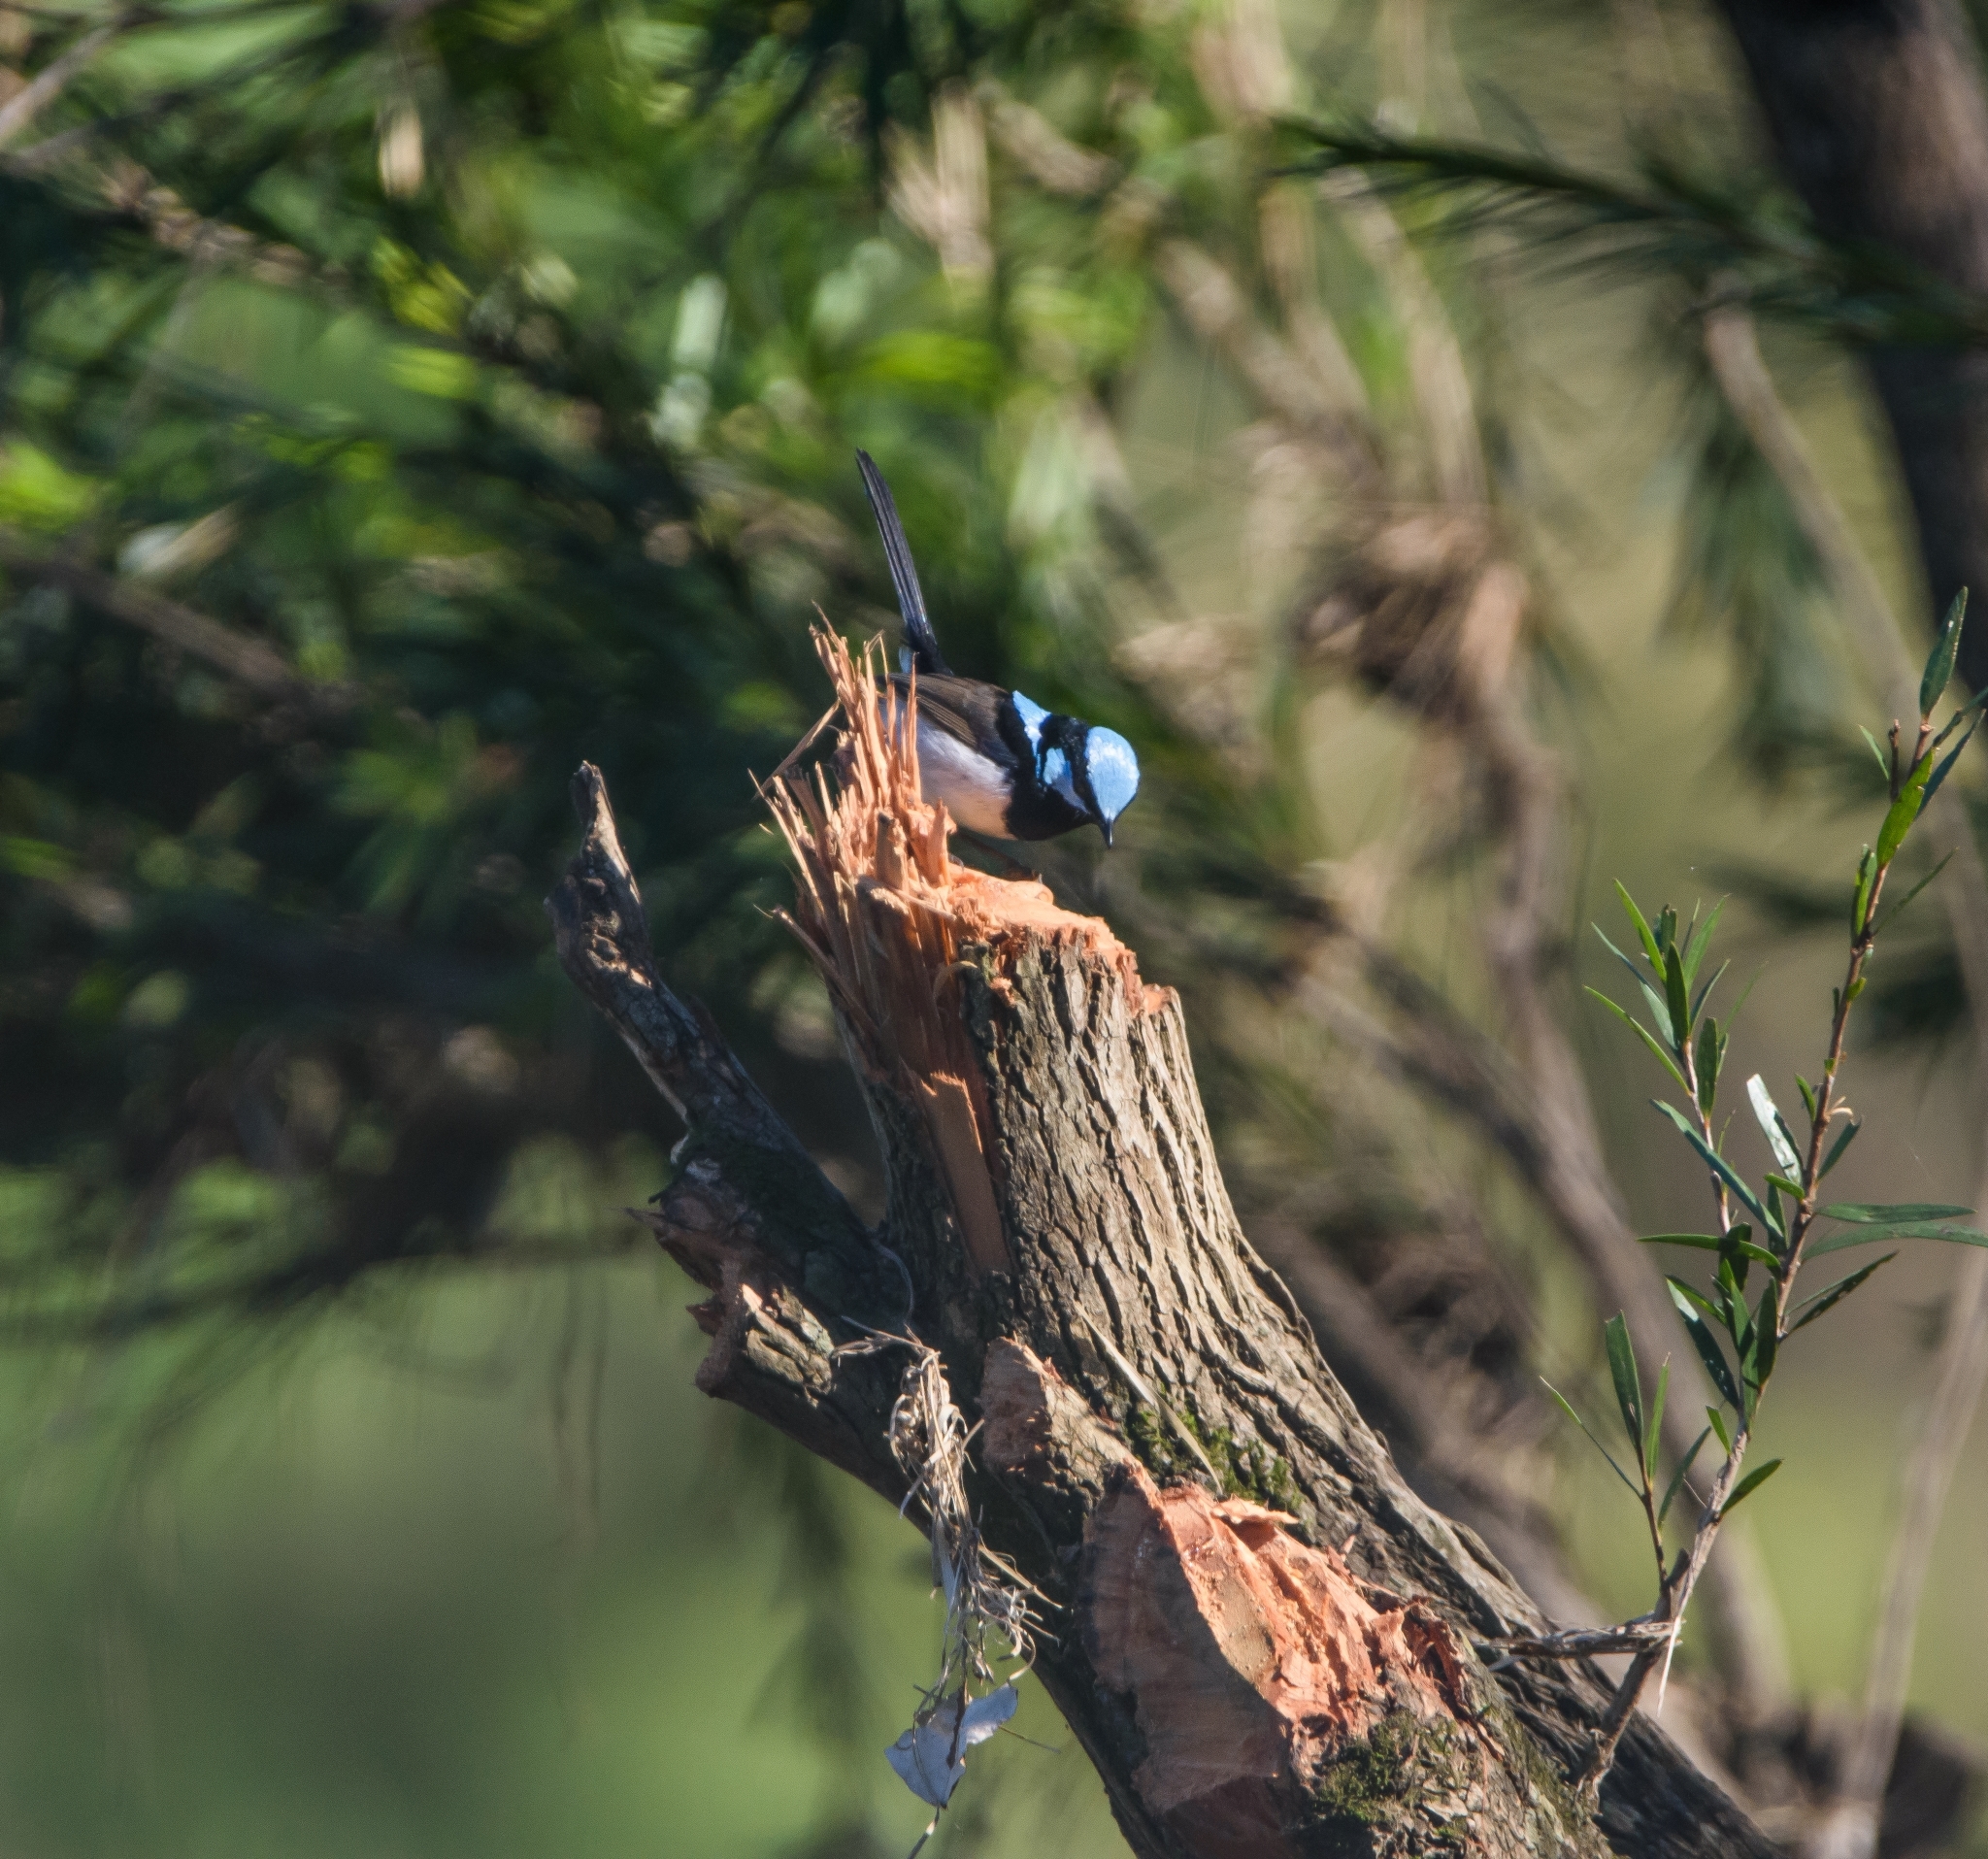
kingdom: Animalia
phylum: Chordata
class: Aves
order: Passeriformes
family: Maluridae
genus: Malurus
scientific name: Malurus cyaneus
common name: Superb fairywren
